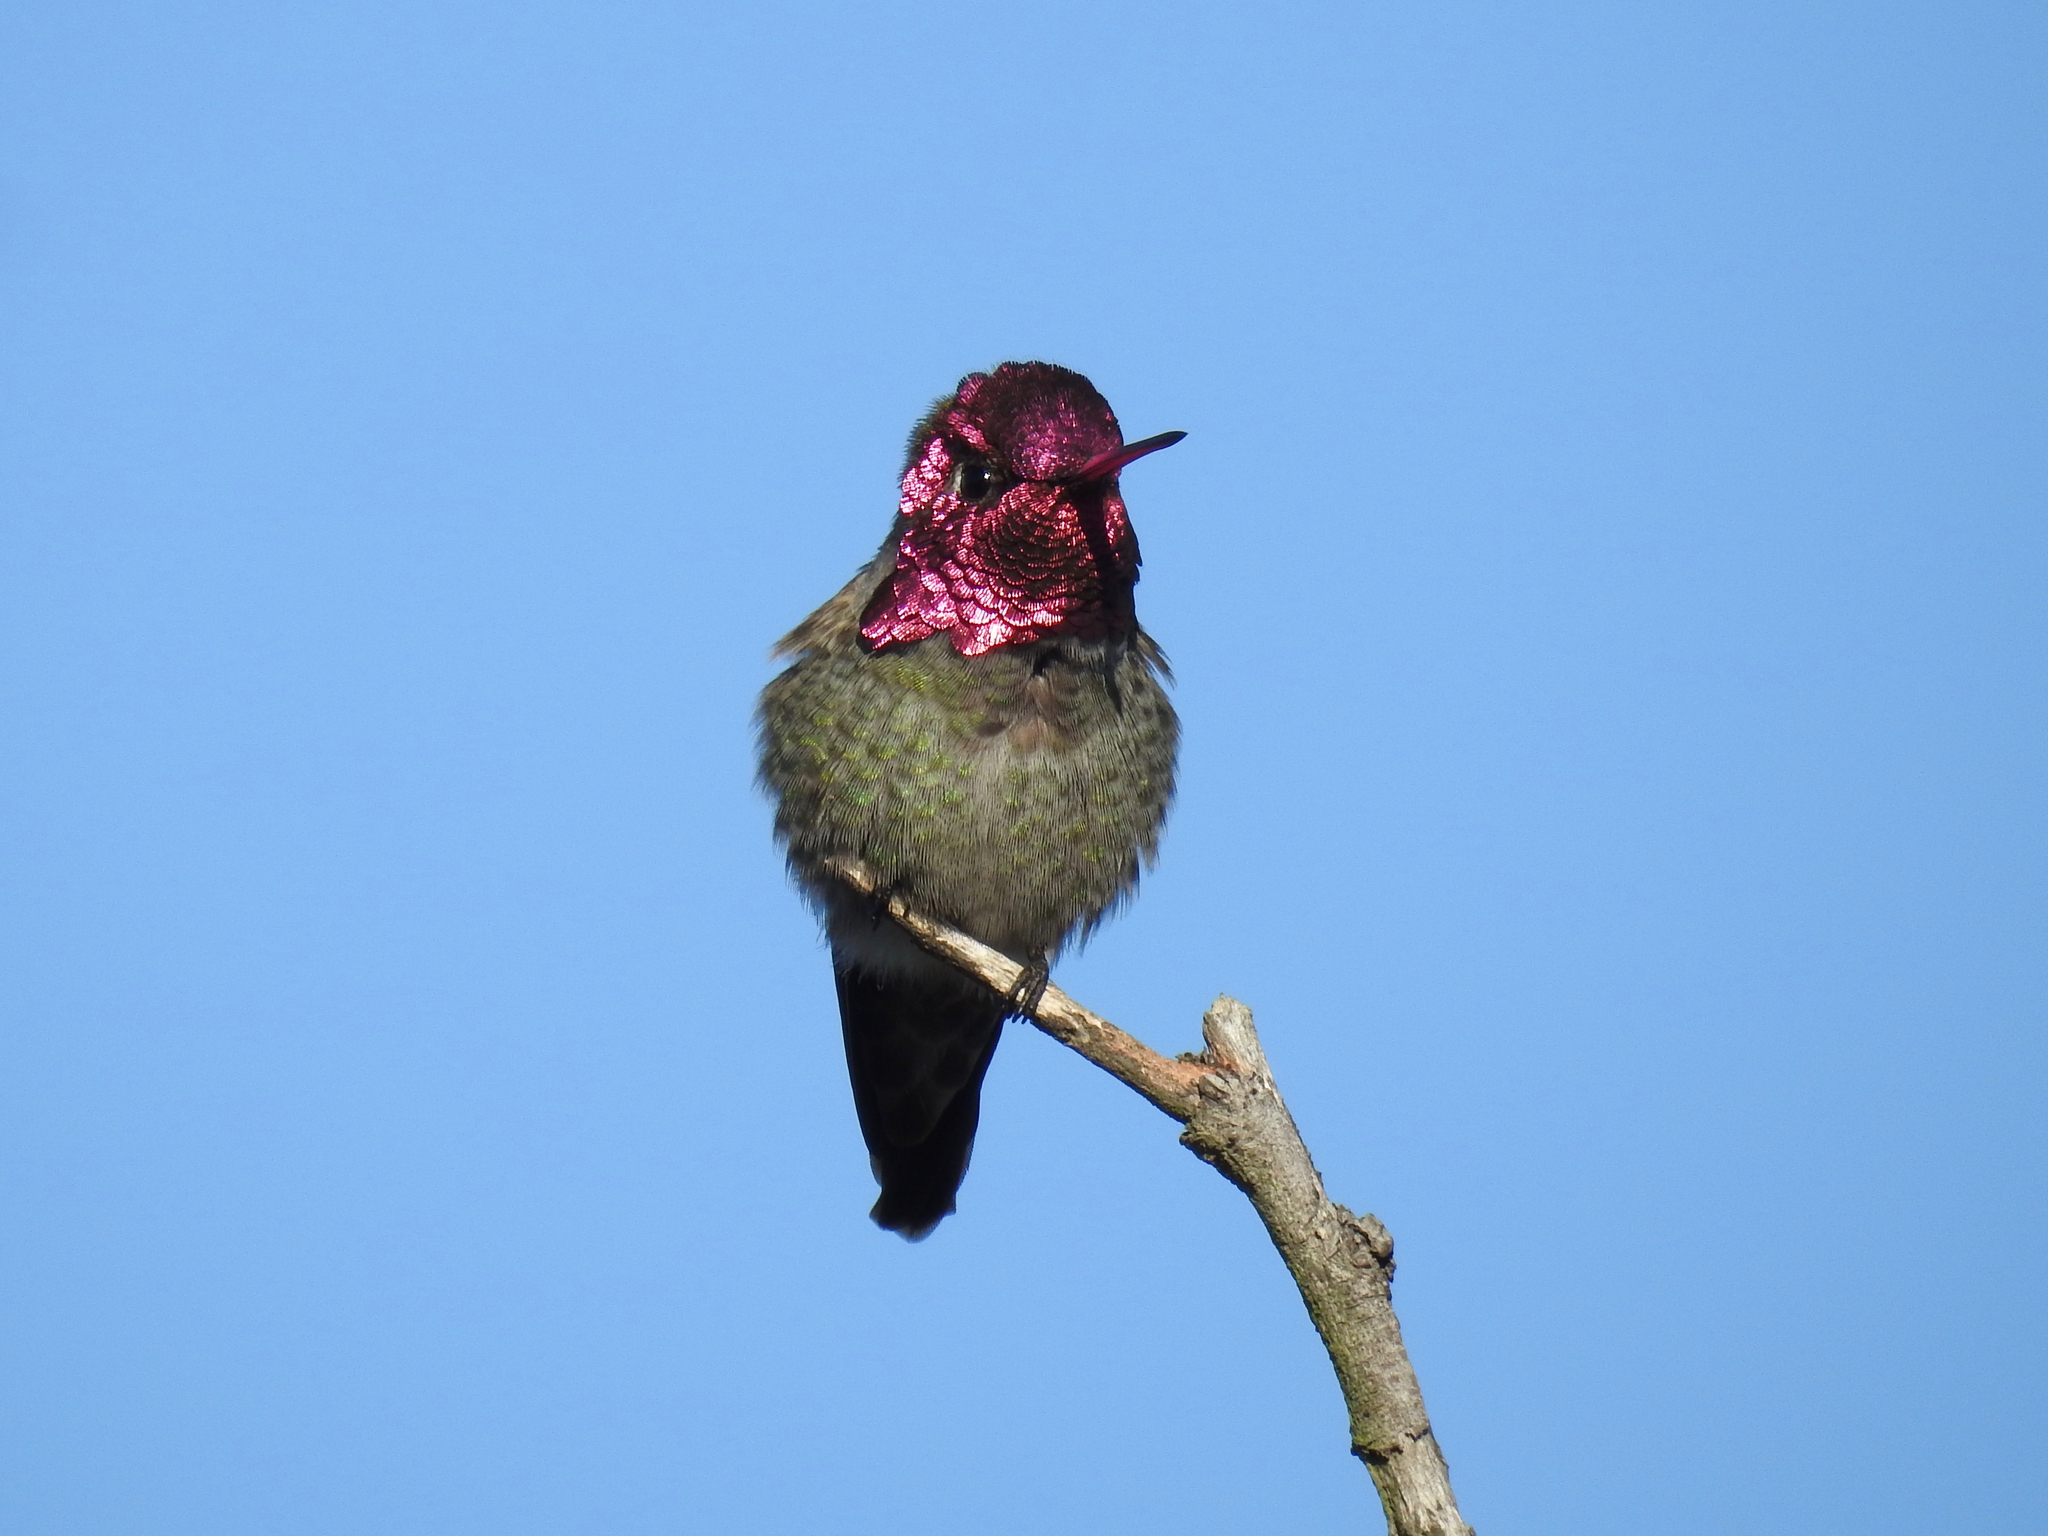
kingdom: Animalia
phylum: Chordata
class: Aves
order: Apodiformes
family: Trochilidae
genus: Calypte
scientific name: Calypte anna
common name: Anna's hummingbird
